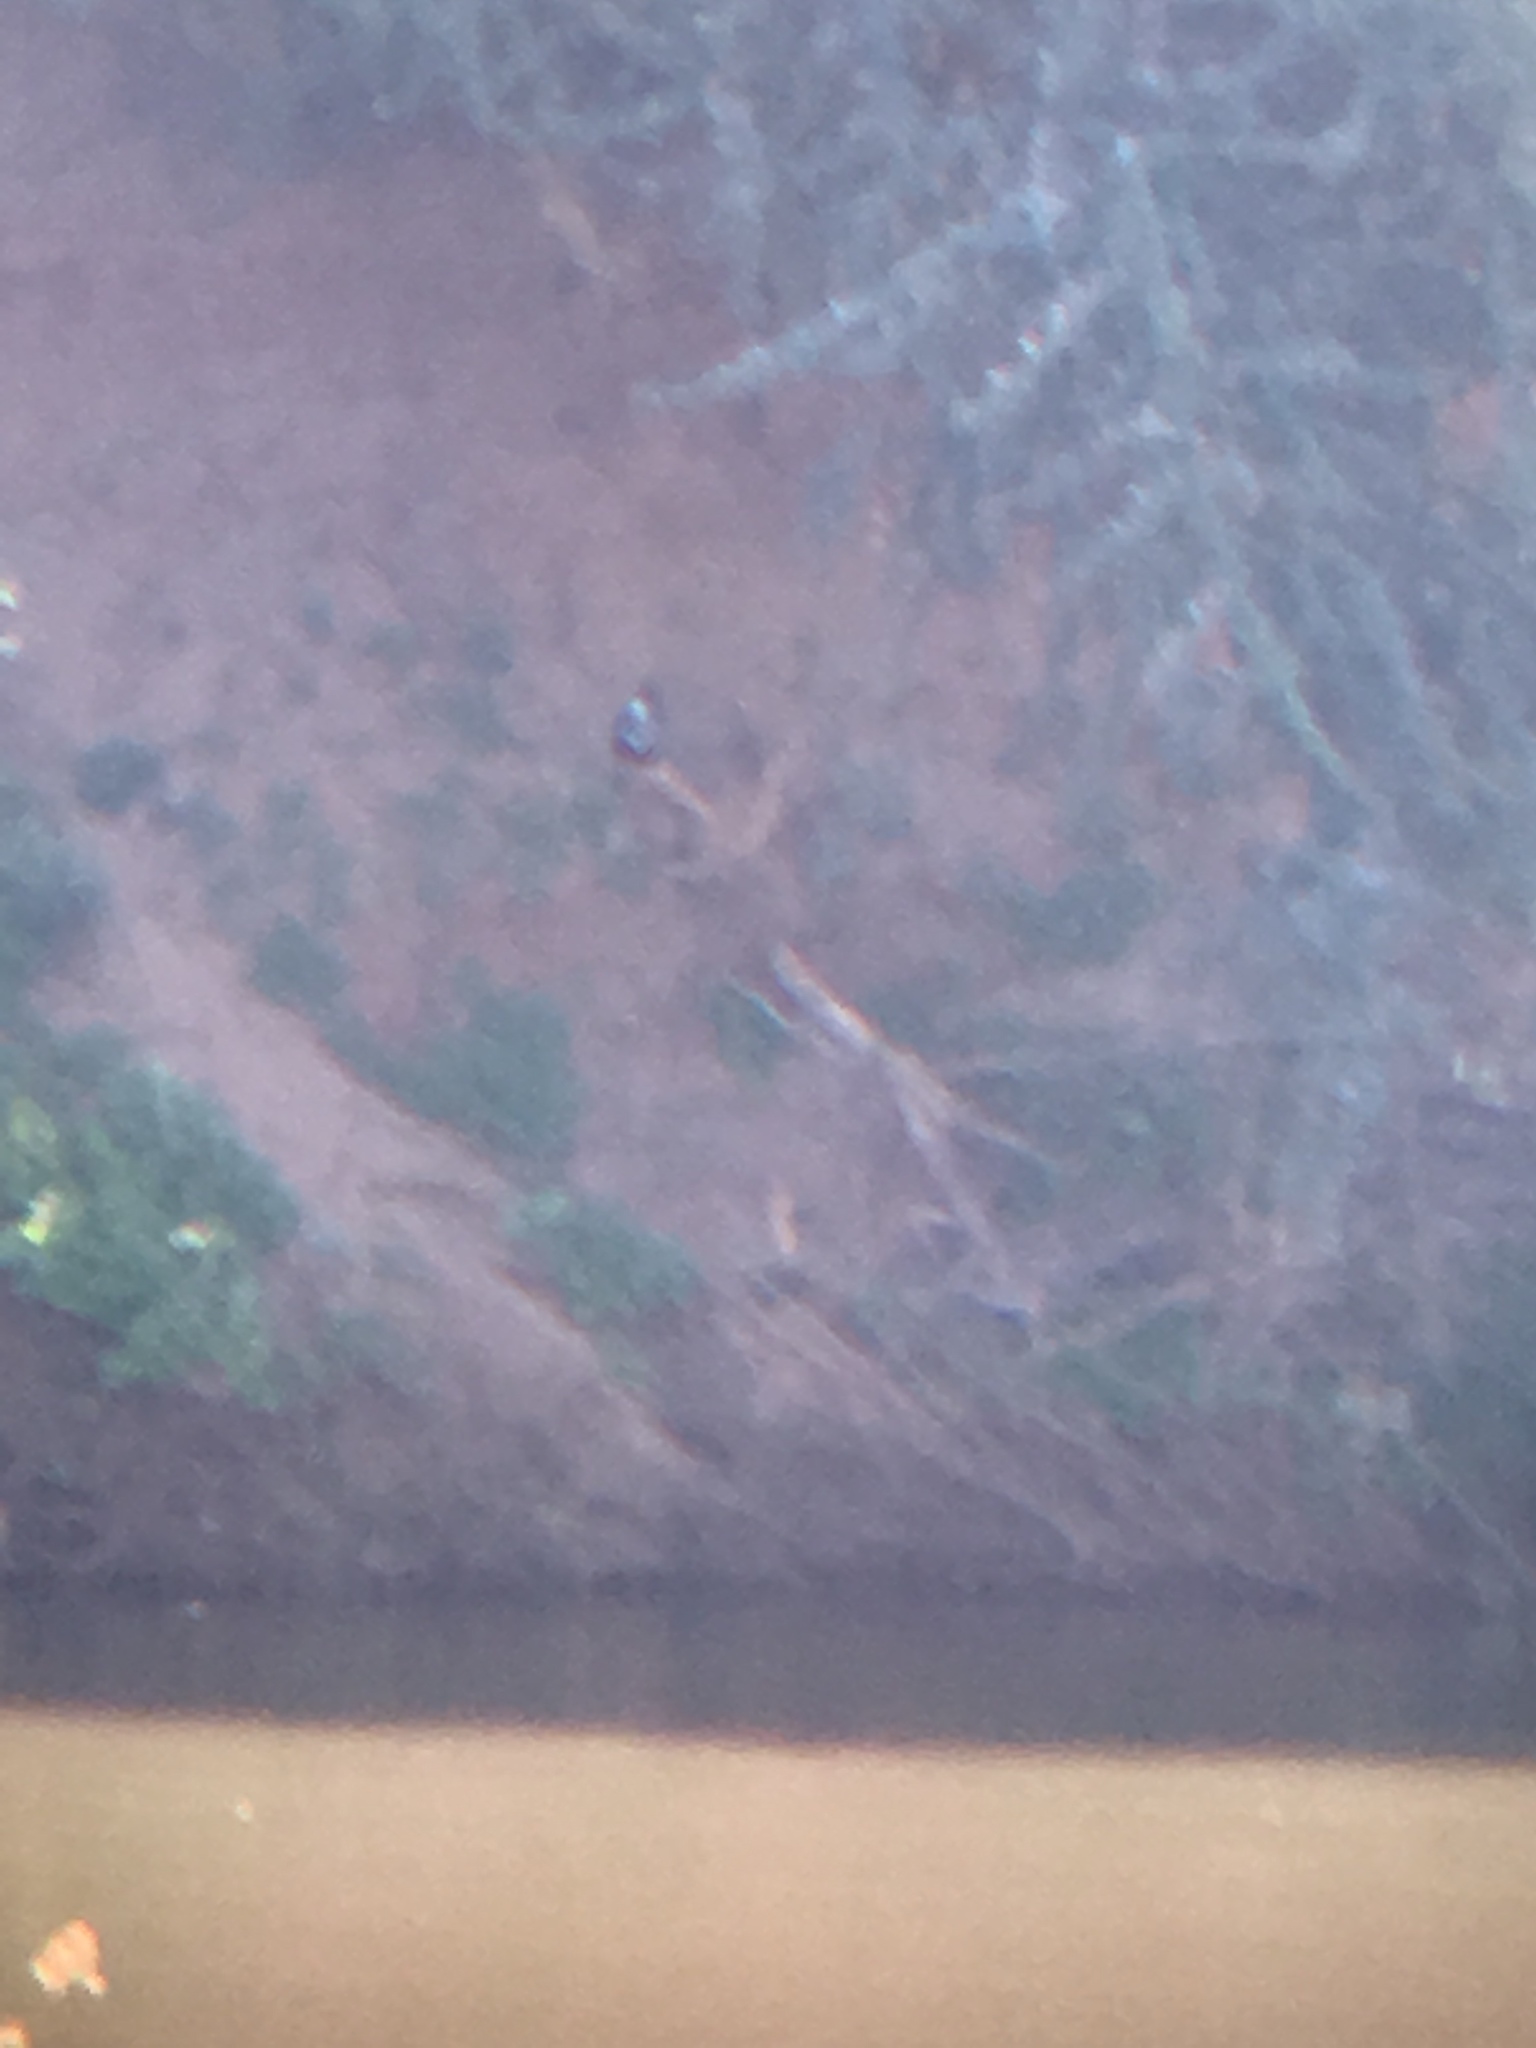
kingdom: Animalia
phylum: Chordata
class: Aves
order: Coraciiformes
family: Alcedinidae
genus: Megaceryle
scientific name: Megaceryle maxima
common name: Giant kingfisher
